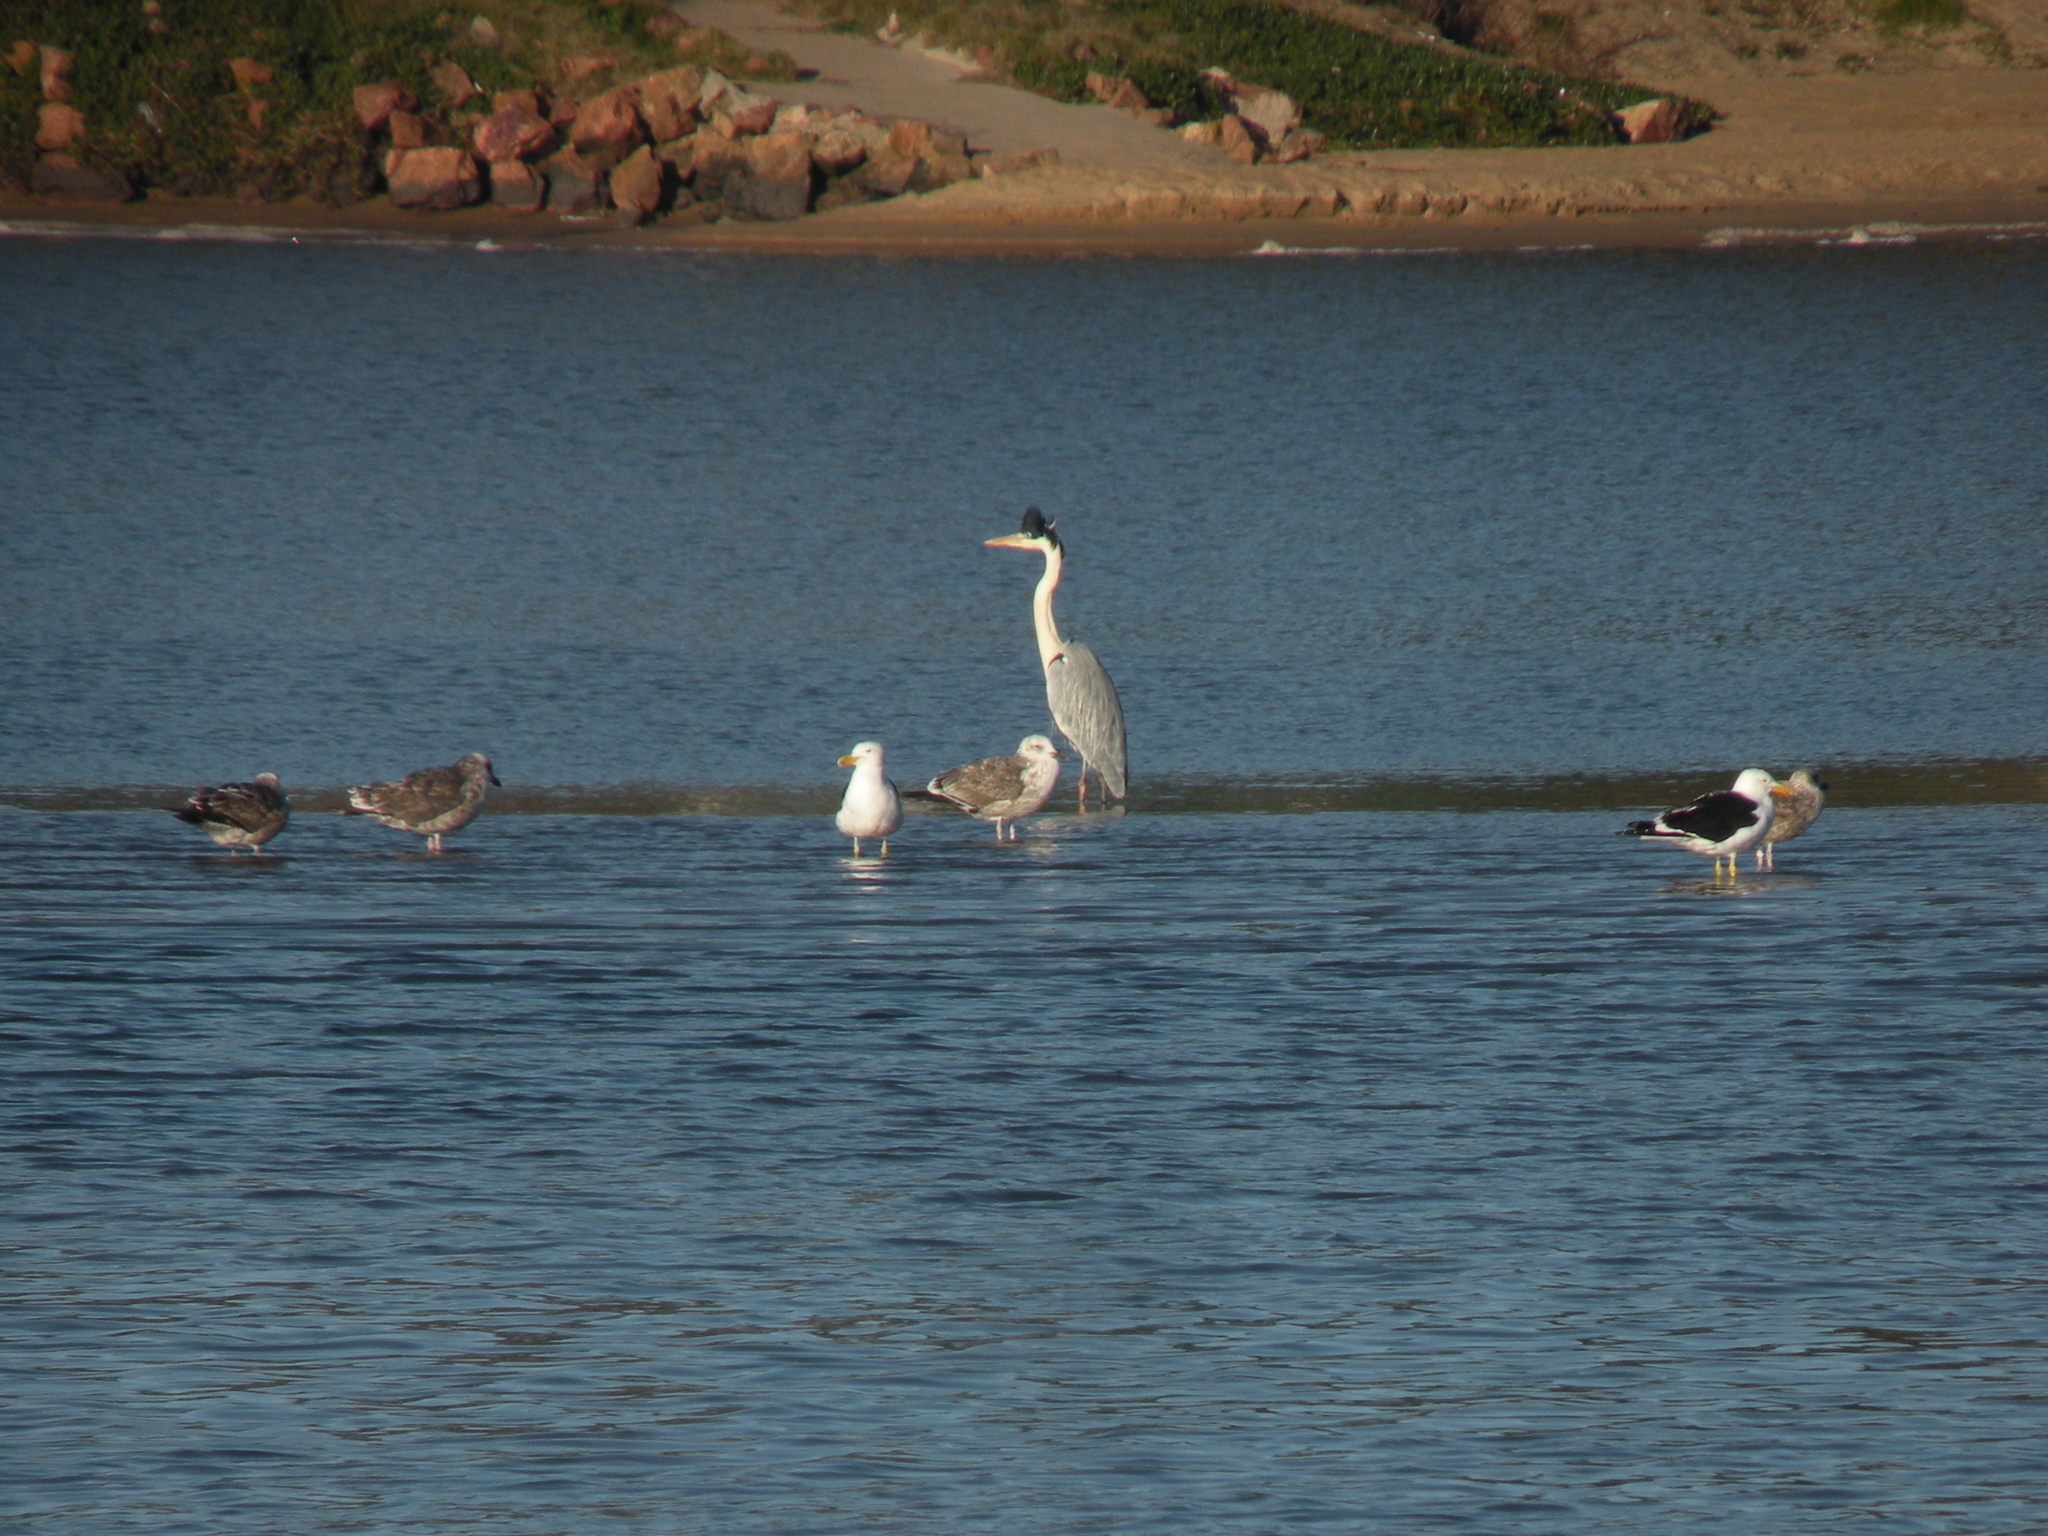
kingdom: Animalia
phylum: Chordata
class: Aves
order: Pelecaniformes
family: Ardeidae
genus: Ardea
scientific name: Ardea cocoi
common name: Cocoi heron
